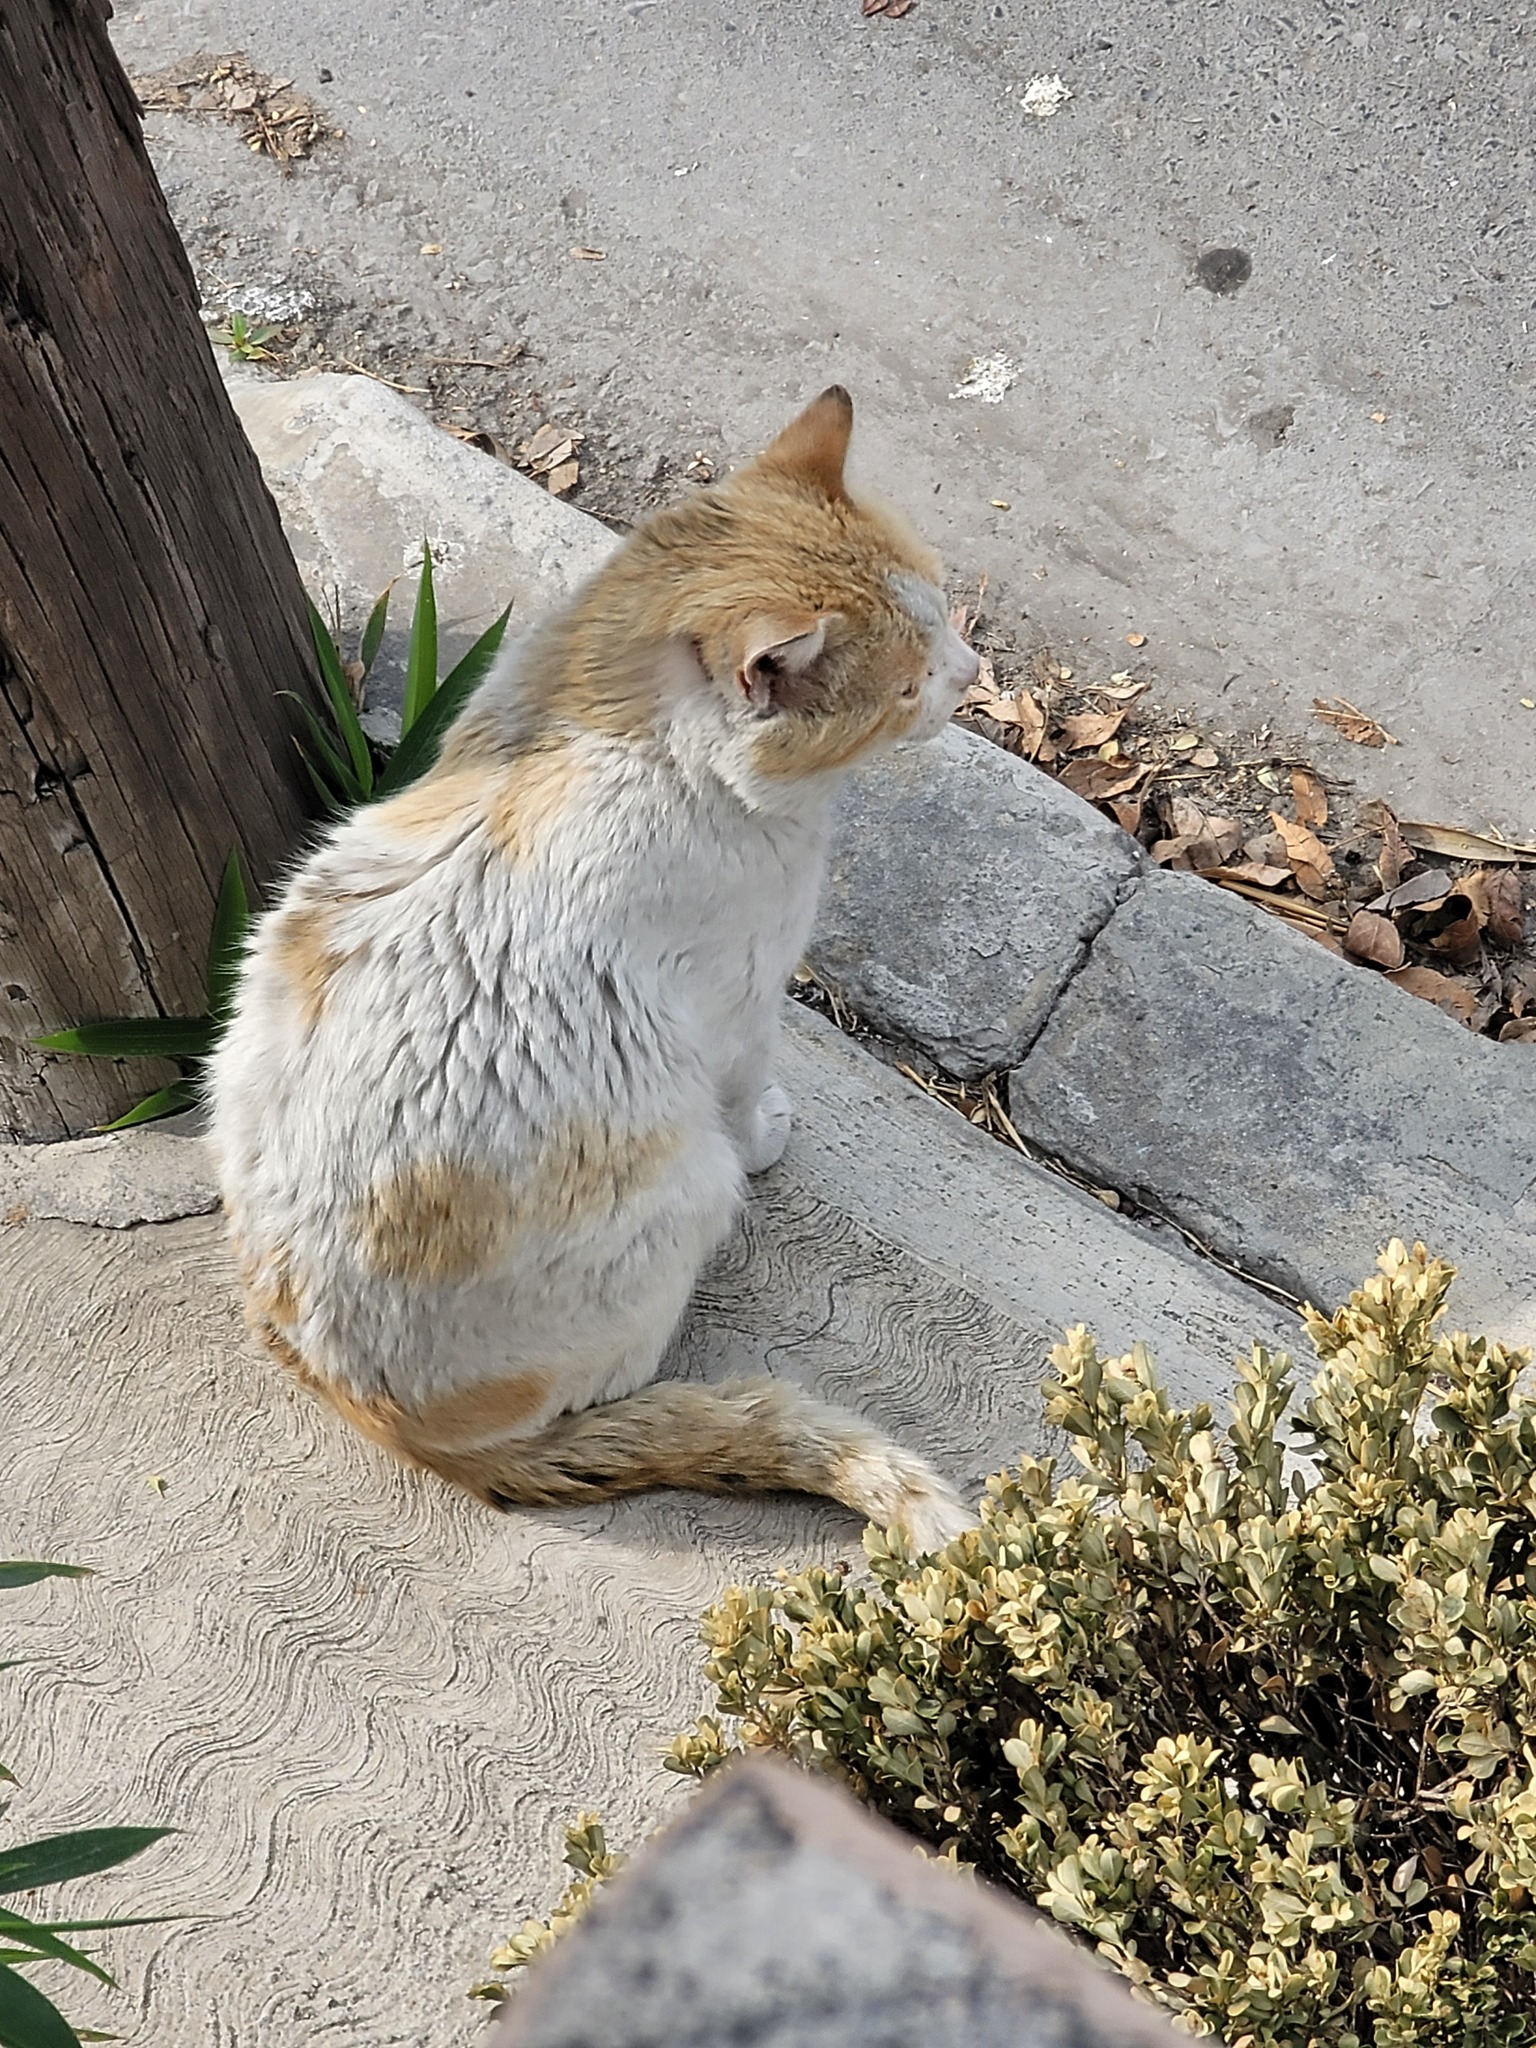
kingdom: Animalia
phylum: Chordata
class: Mammalia
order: Carnivora
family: Felidae
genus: Felis
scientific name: Felis catus
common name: Domestic cat
